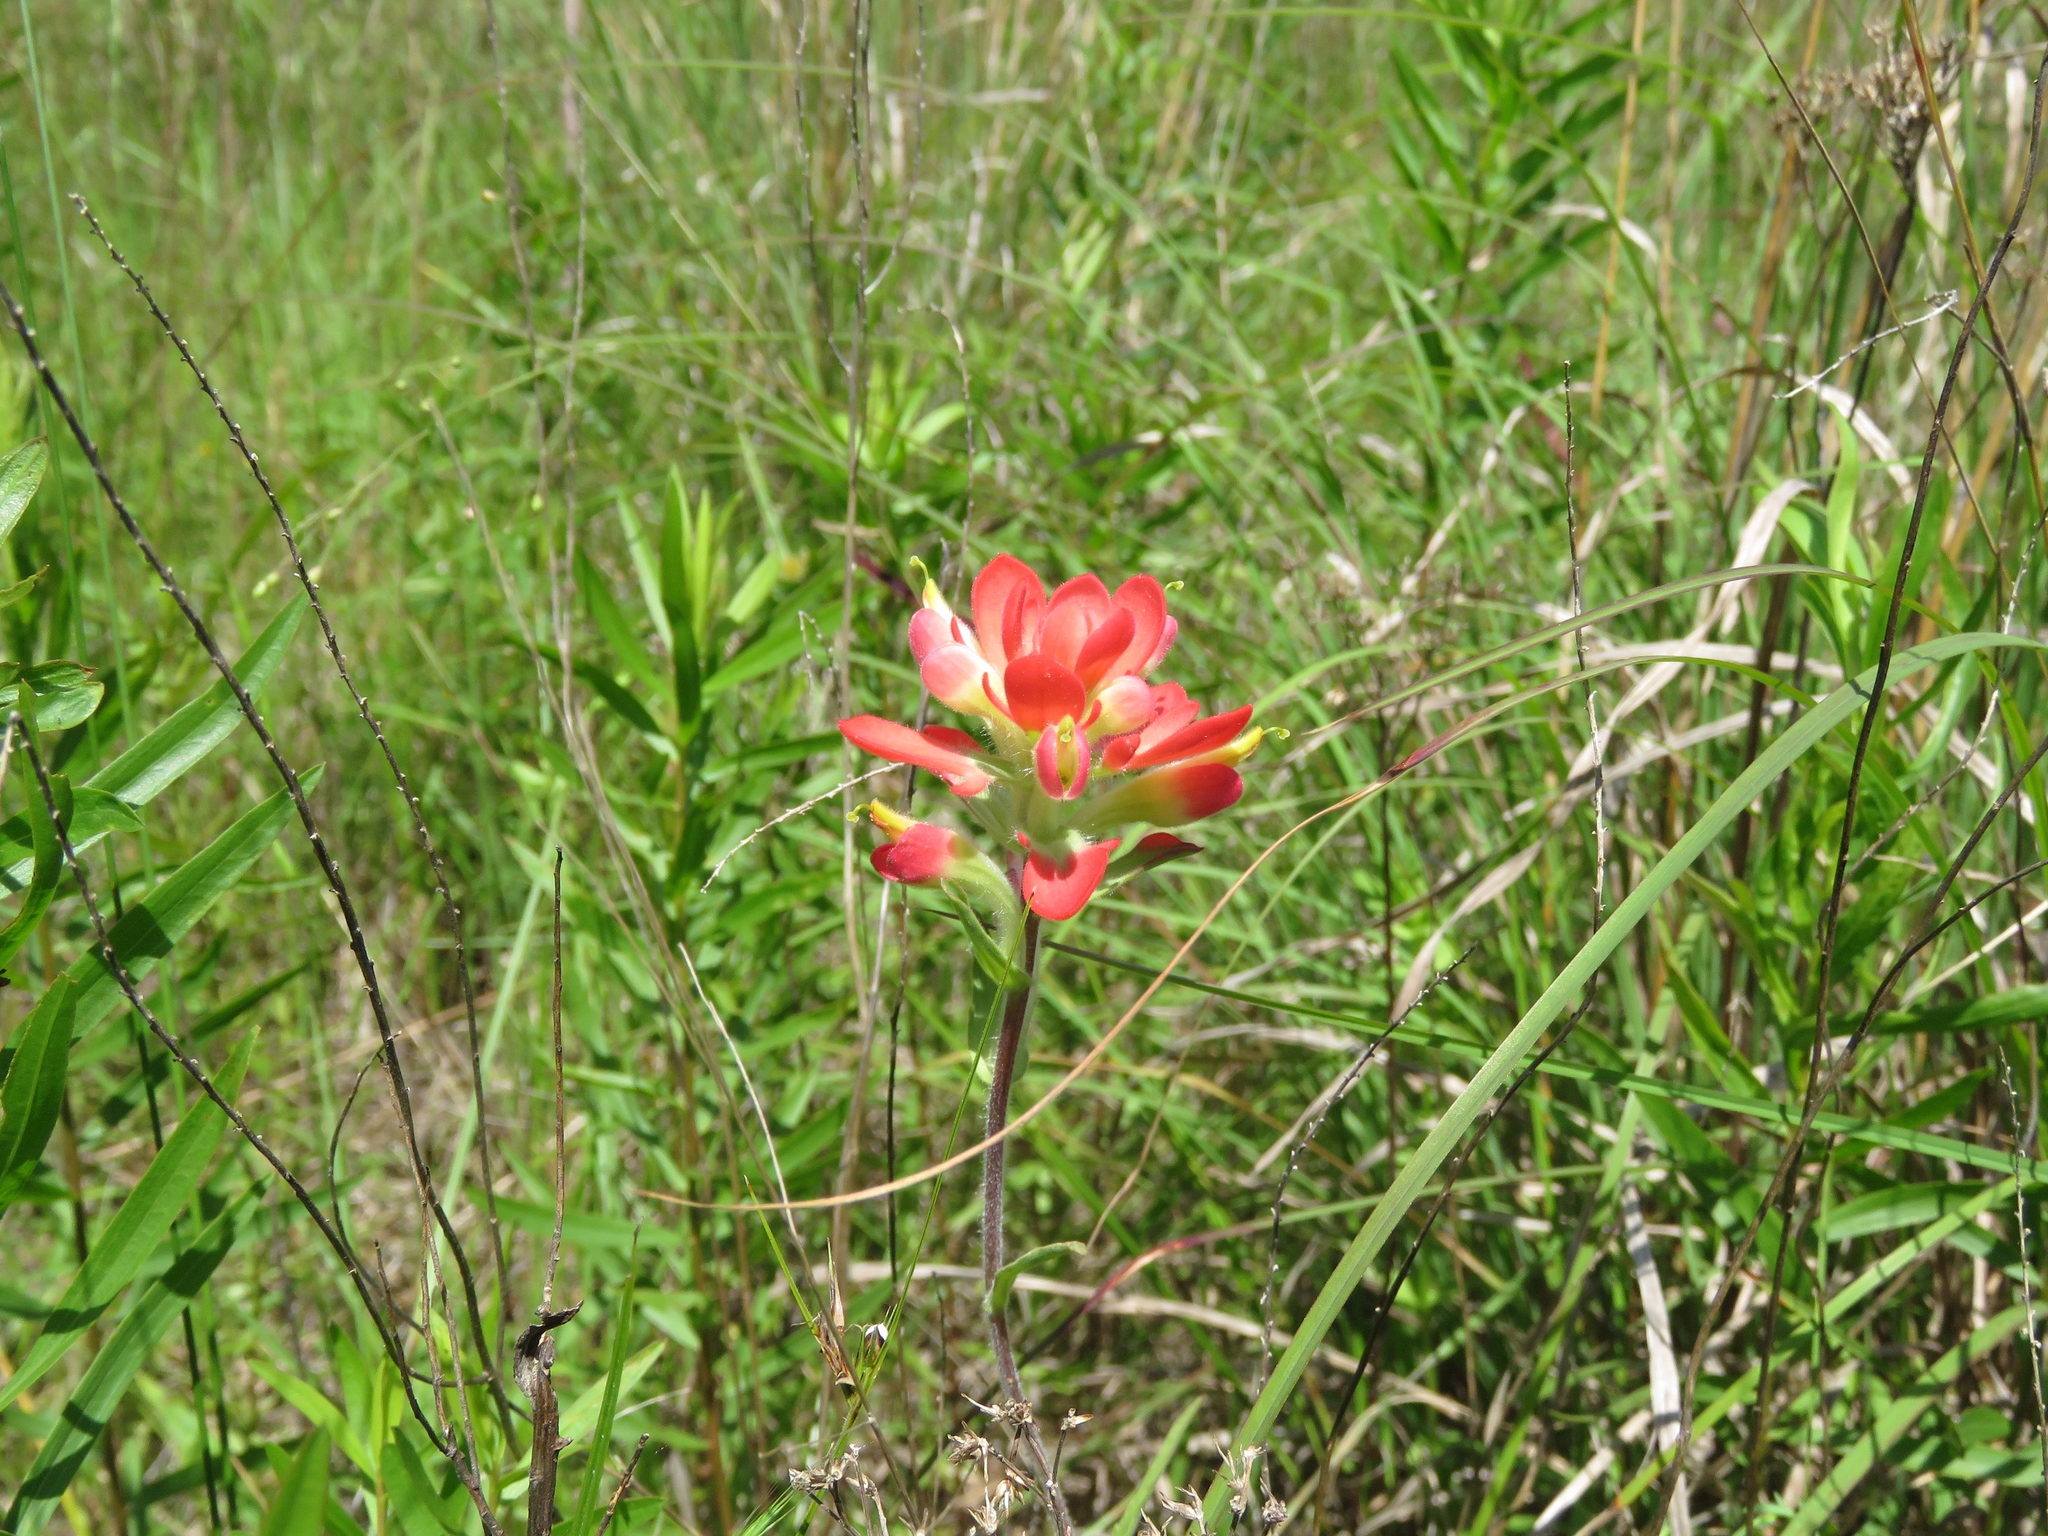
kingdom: Plantae
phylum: Tracheophyta
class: Magnoliopsida
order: Lamiales
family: Orobanchaceae
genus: Castilleja
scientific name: Castilleja indivisa
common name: Texas paintbrush
